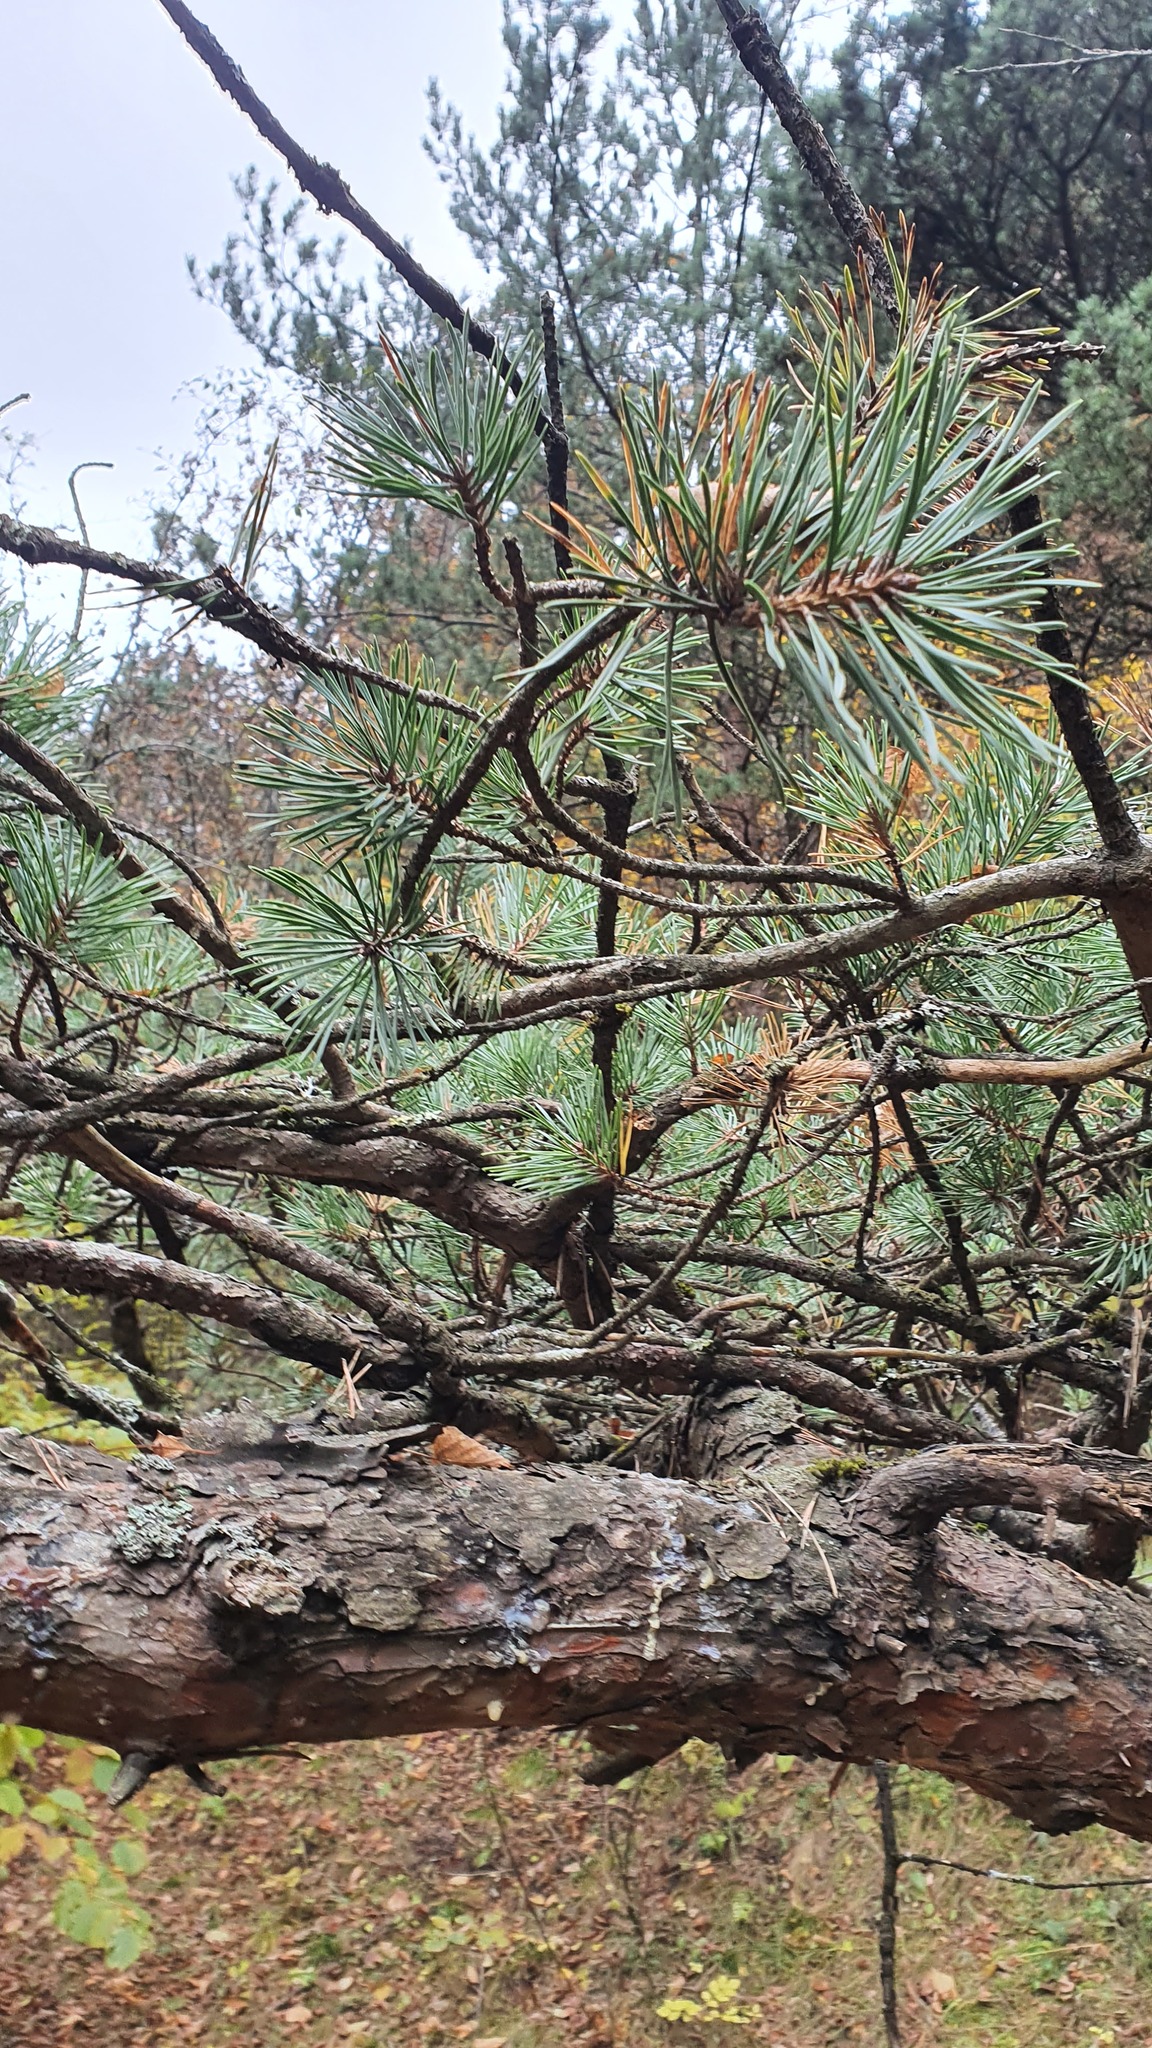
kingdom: Plantae
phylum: Tracheophyta
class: Pinopsida
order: Pinales
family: Pinaceae
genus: Pinus
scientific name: Pinus sylvestris
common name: Scots pine
